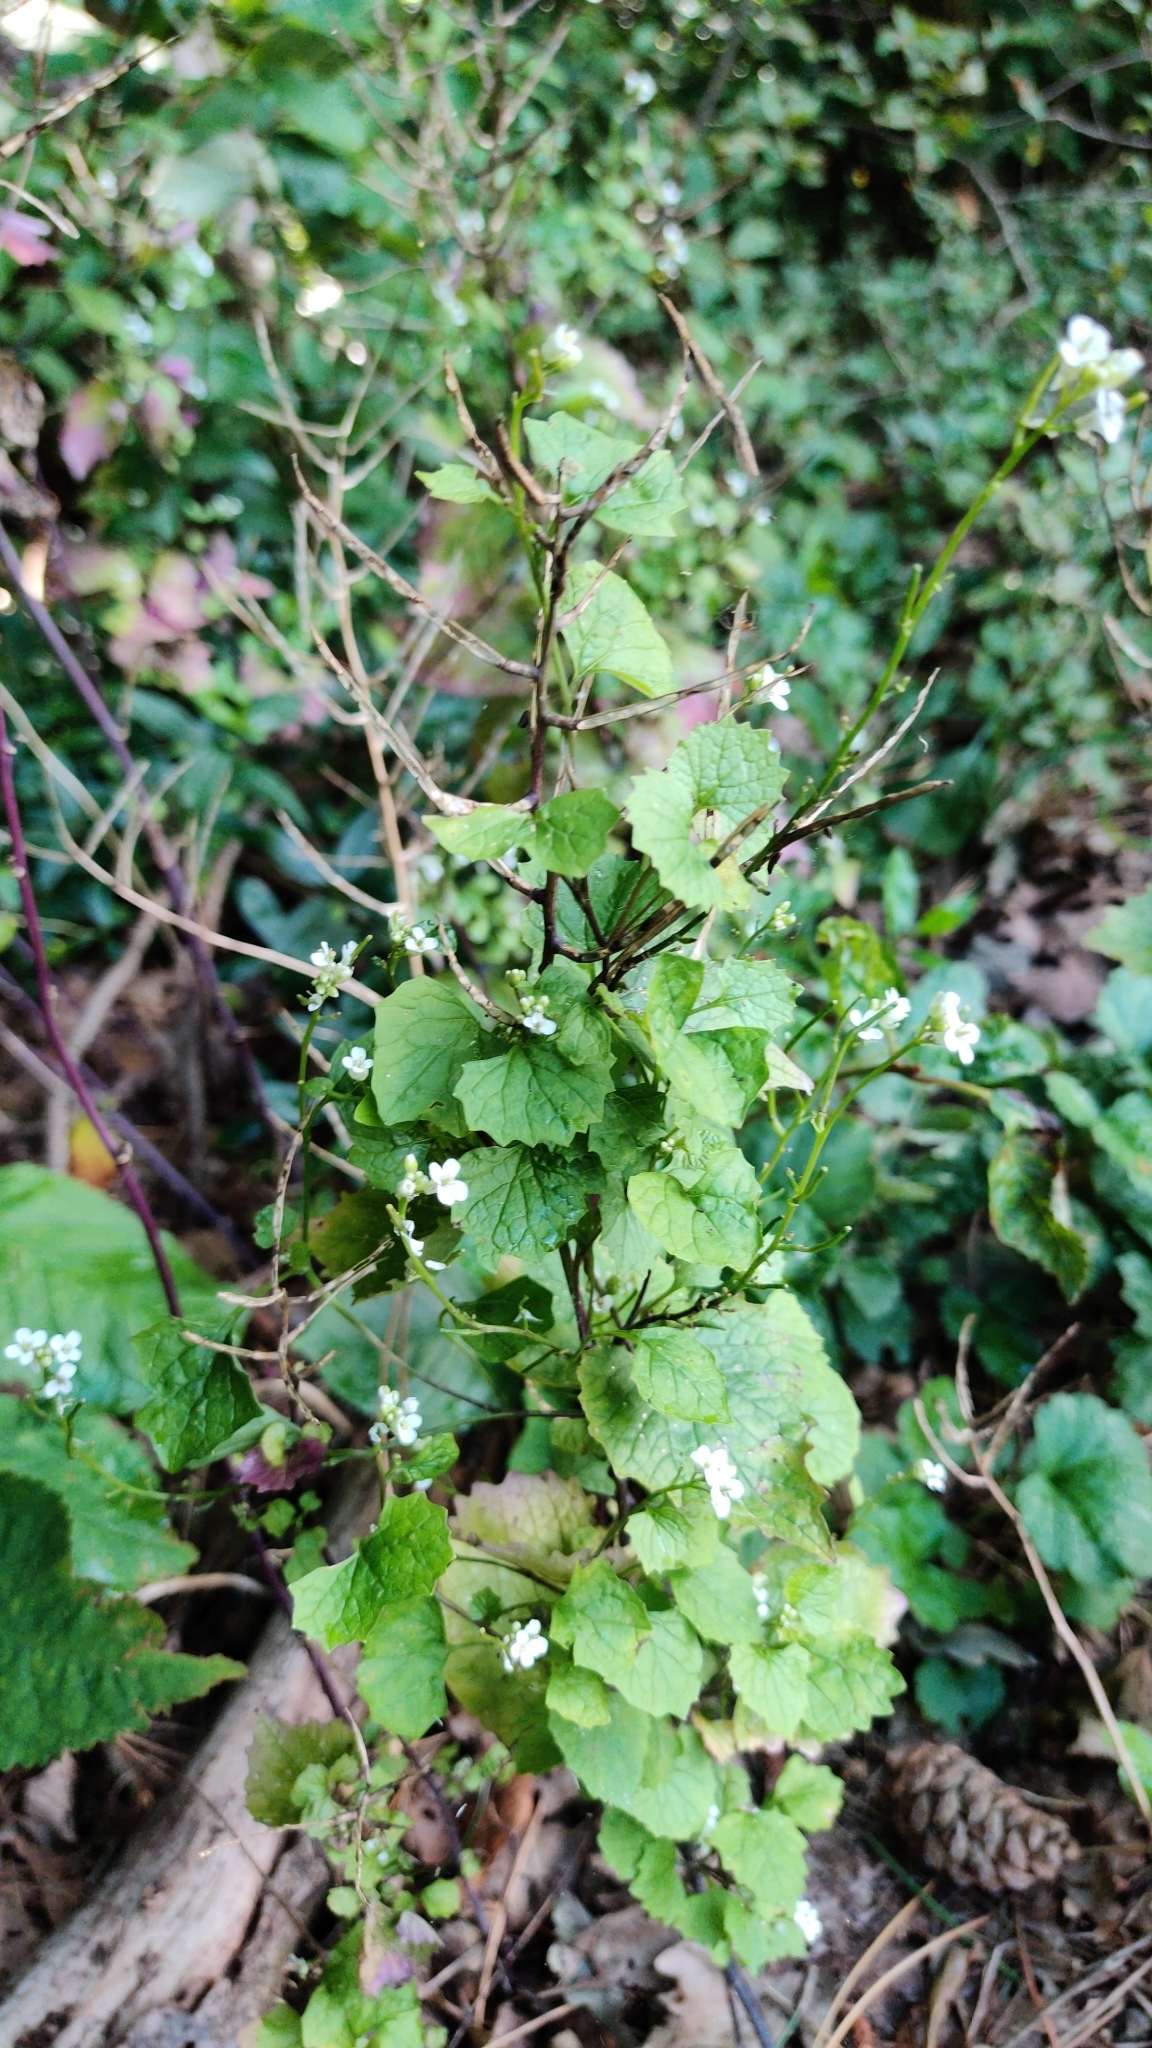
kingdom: Plantae
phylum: Tracheophyta
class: Magnoliopsida
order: Brassicales
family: Brassicaceae
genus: Alliaria
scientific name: Alliaria petiolata
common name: Garlic mustard
